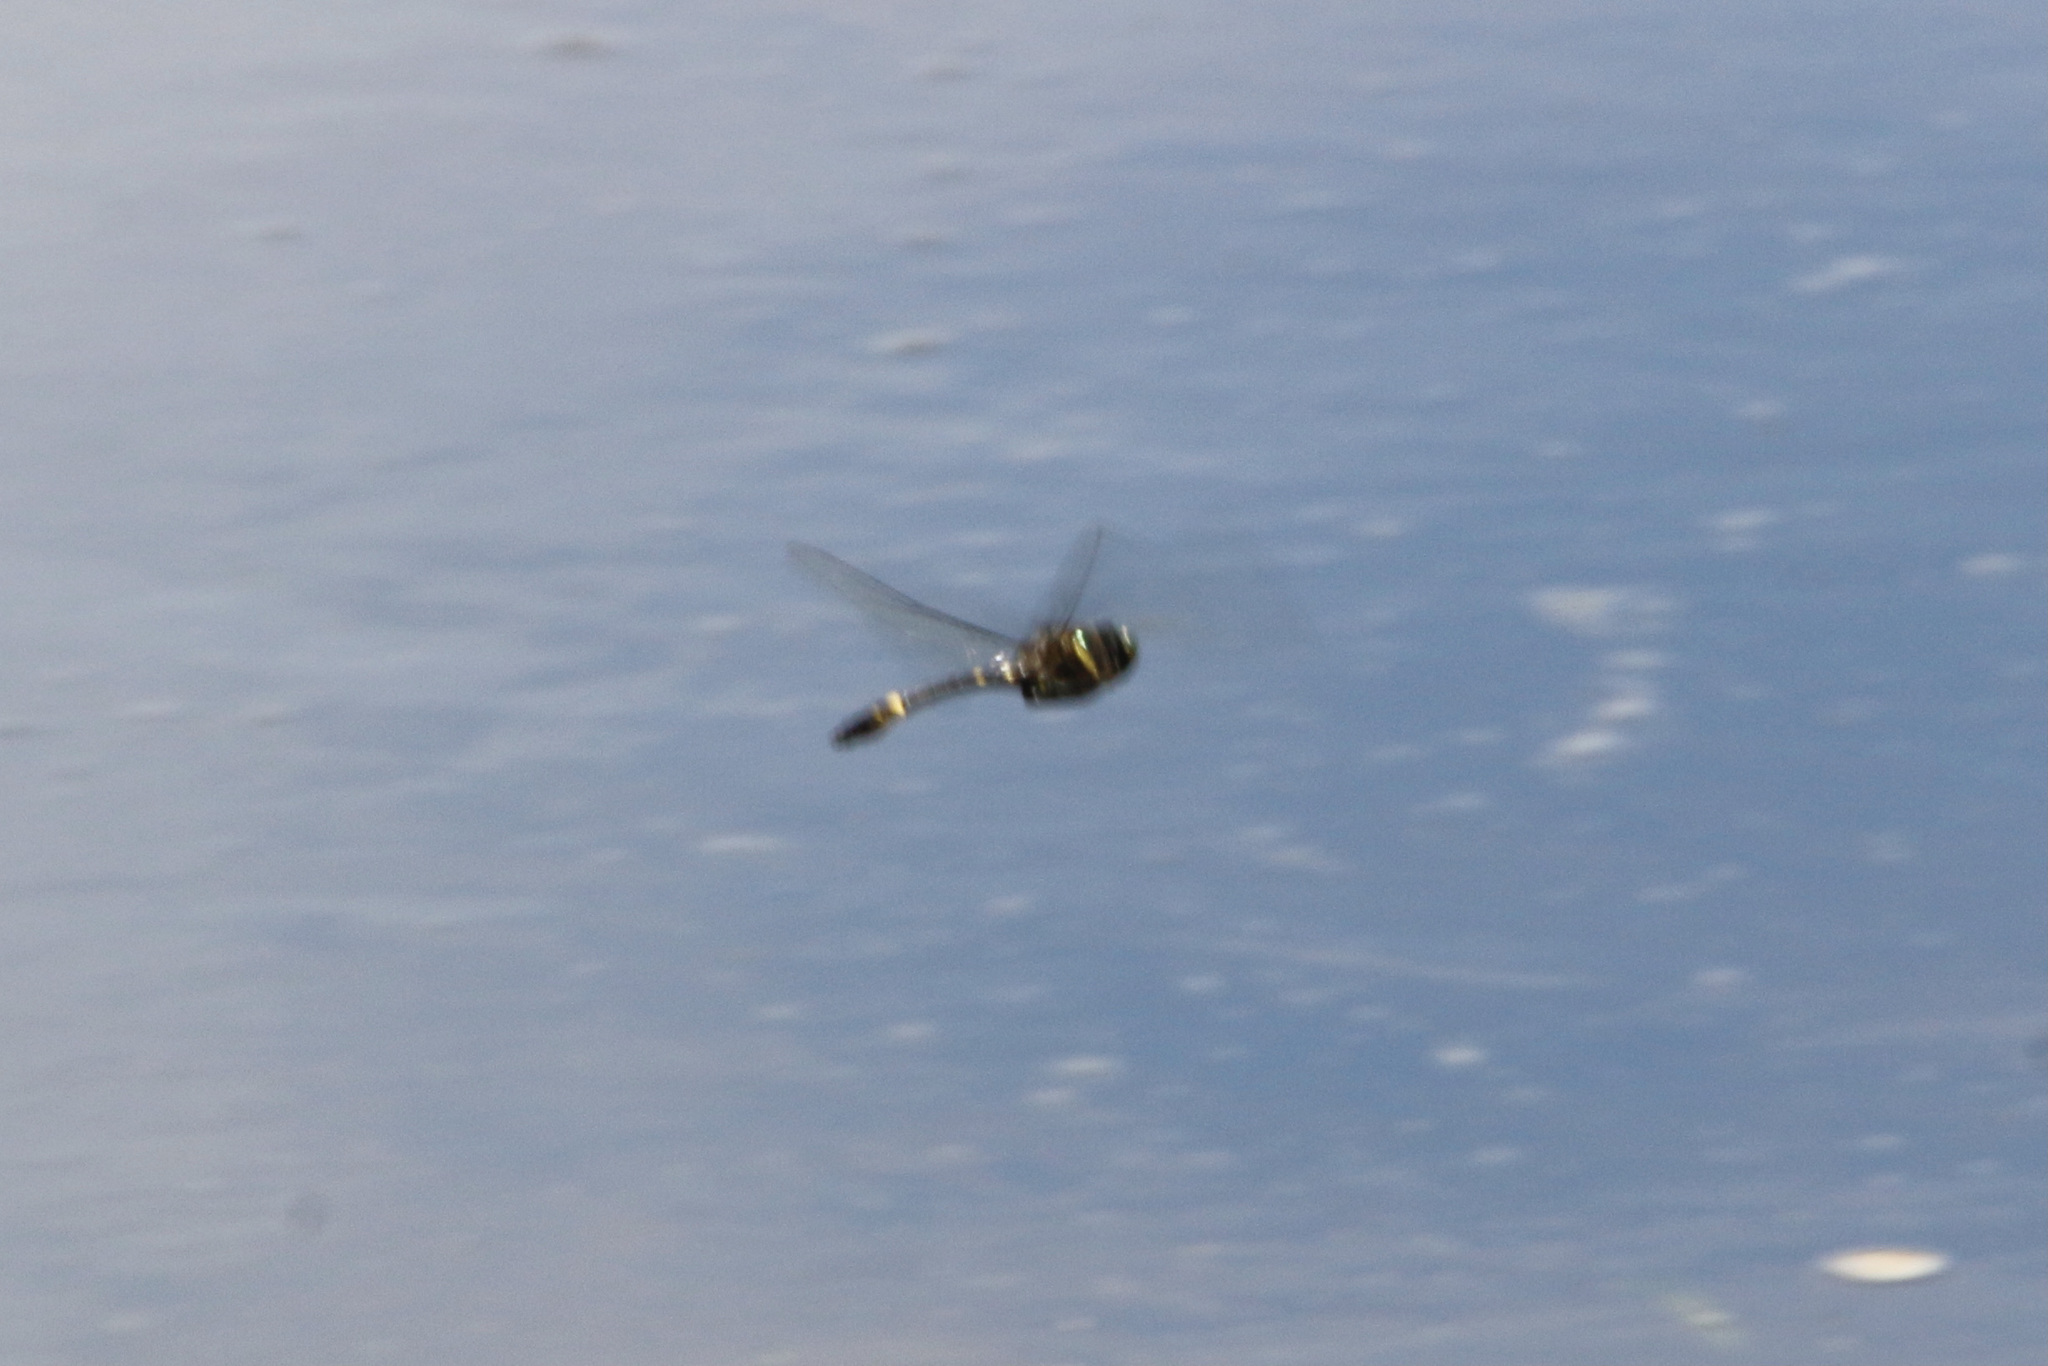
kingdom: Animalia
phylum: Arthropoda
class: Insecta
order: Odonata
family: Macromiidae
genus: Macromia
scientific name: Macromia illinoiensis
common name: Swift river cruiser
